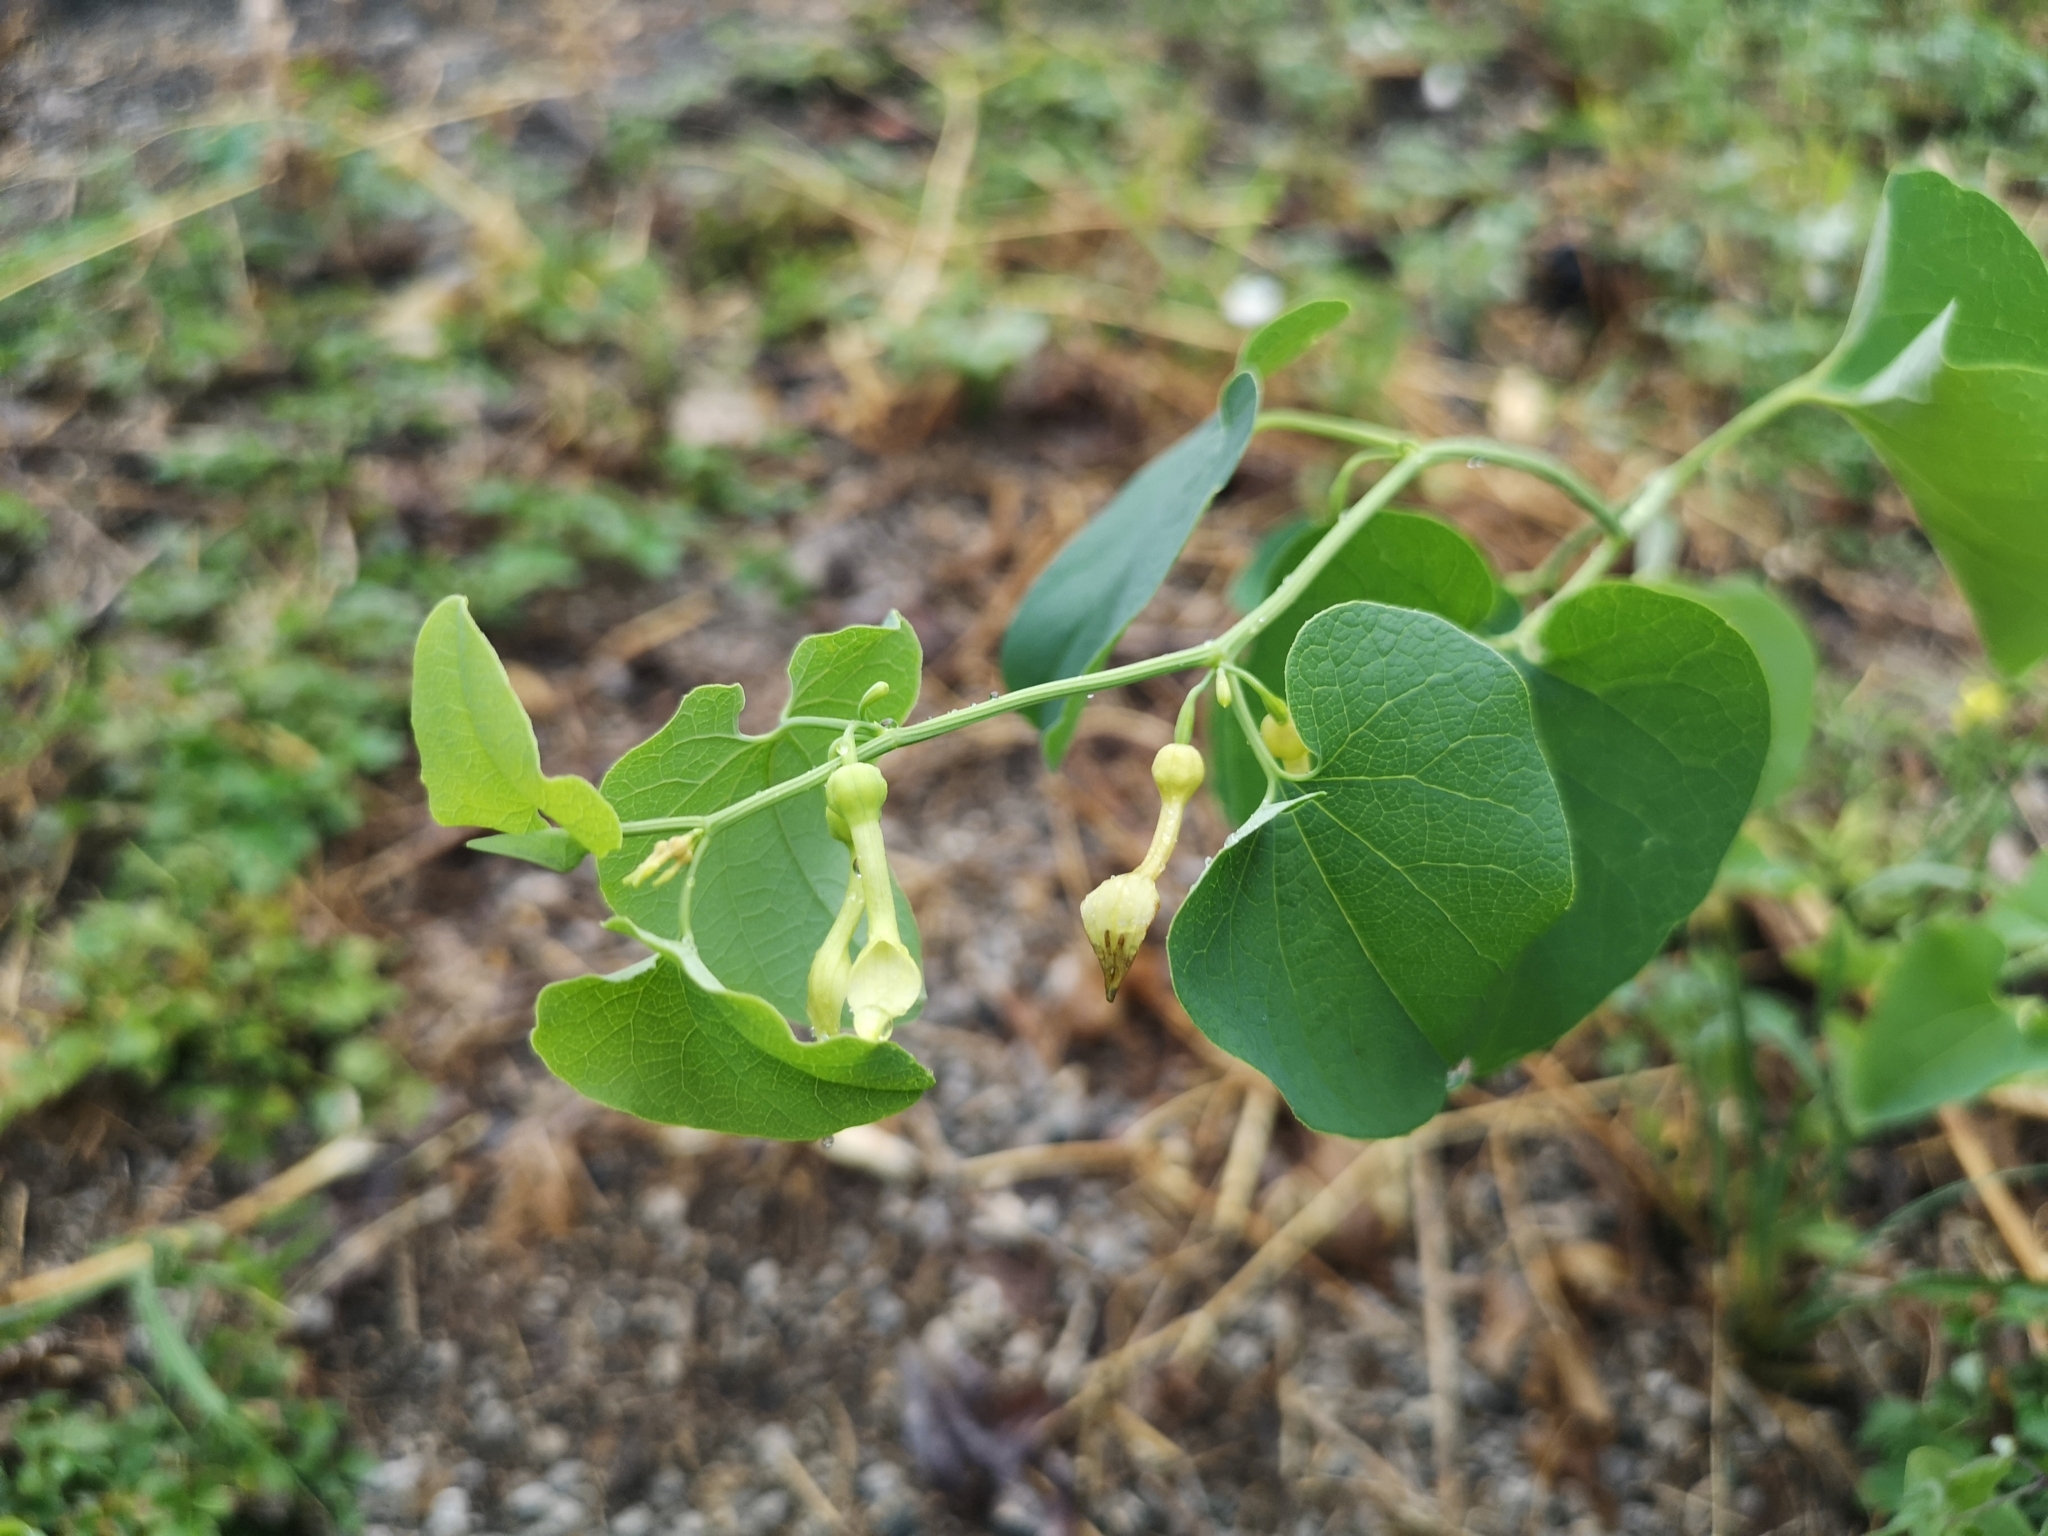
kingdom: Plantae
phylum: Tracheophyta
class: Magnoliopsida
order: Piperales
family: Aristolochiaceae
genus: Aristolochia
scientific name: Aristolochia clematitis
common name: Birthwort
